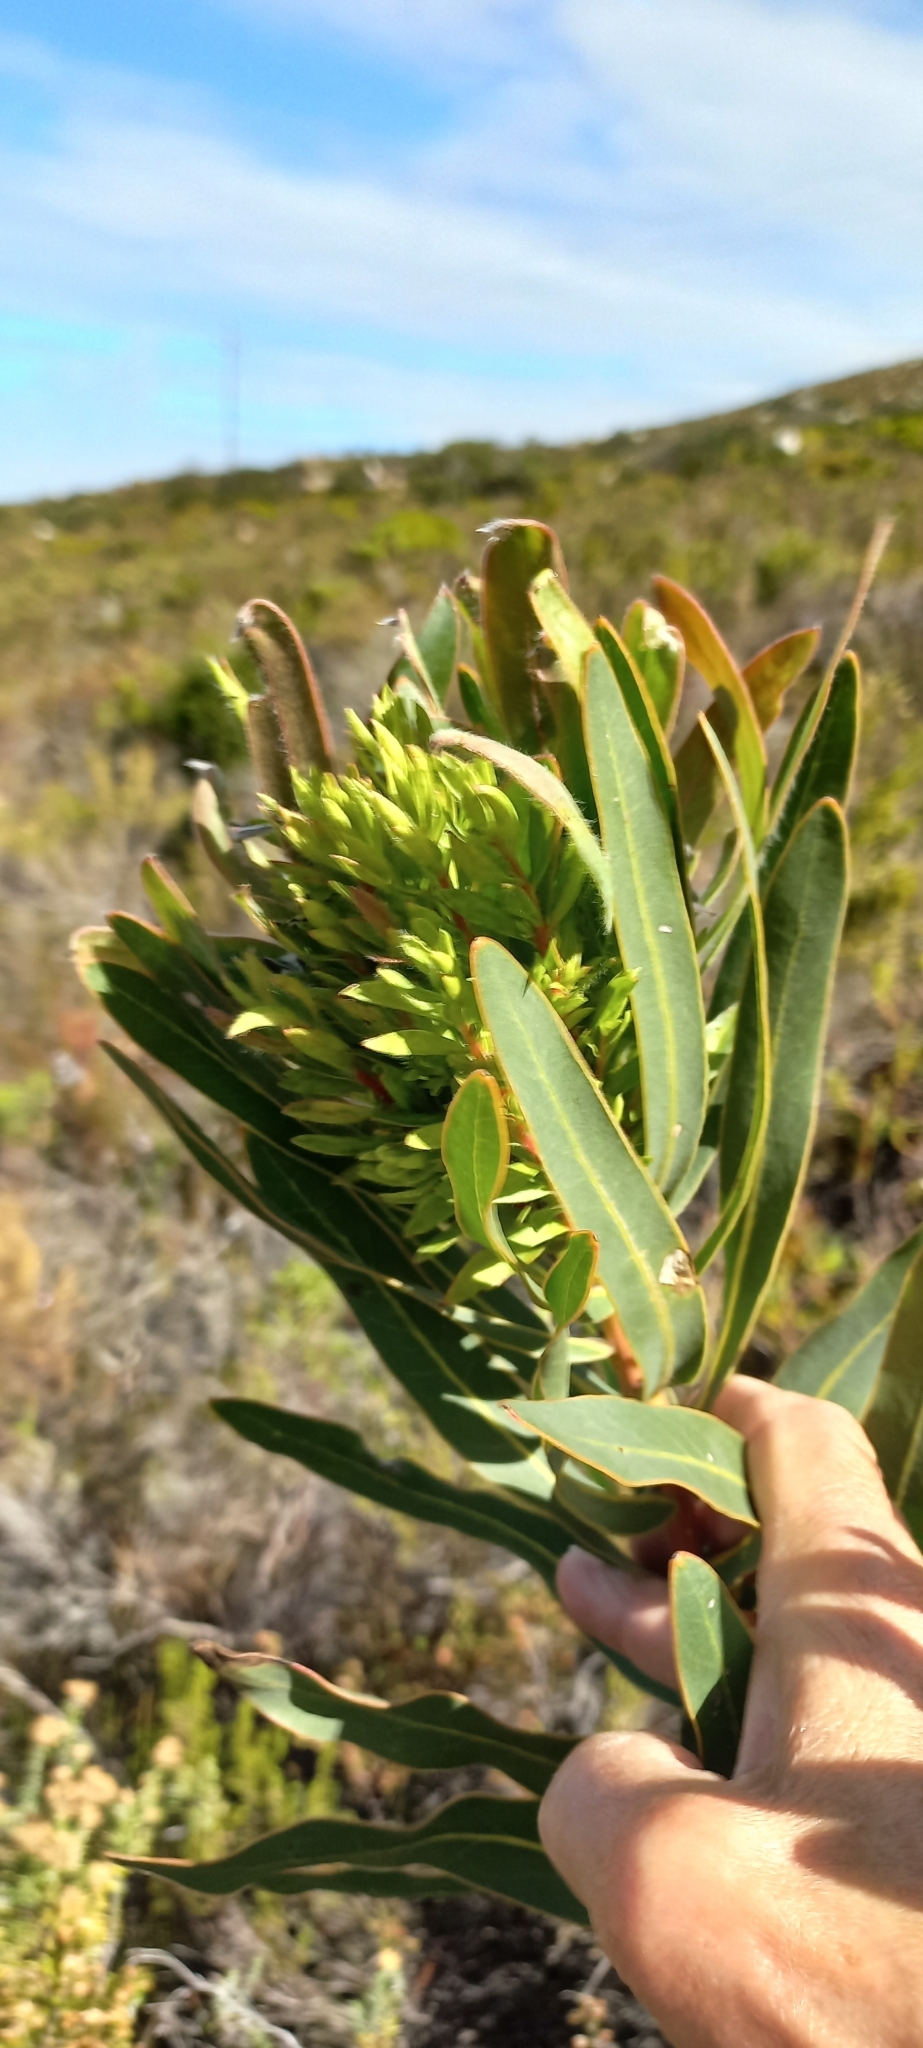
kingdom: Bacteria
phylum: Firmicutes
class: Bacilli
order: Acholeplasmatales
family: Acholeplasmataceae
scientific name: Acholeplasmataceae
